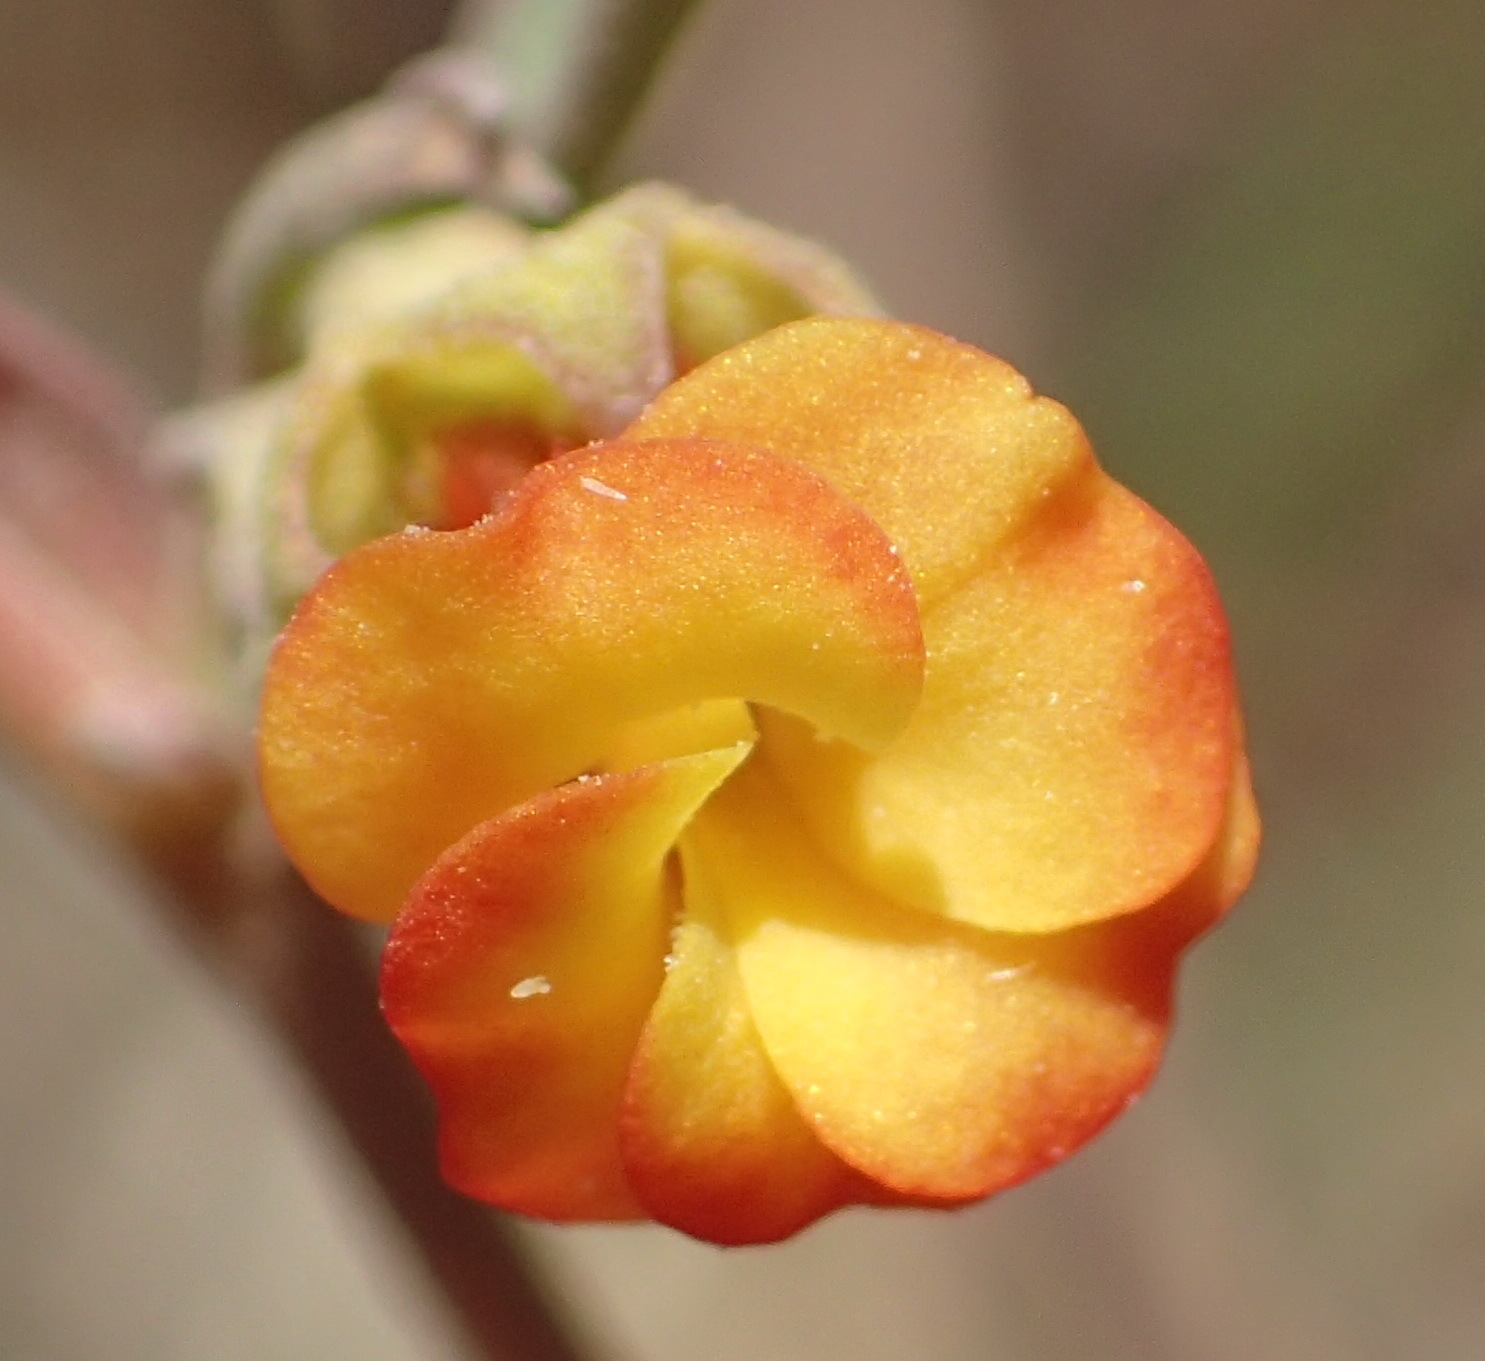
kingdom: Plantae
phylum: Tracheophyta
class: Magnoliopsida
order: Malvales
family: Malvaceae
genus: Hermannia
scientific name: Hermannia diversistipula
